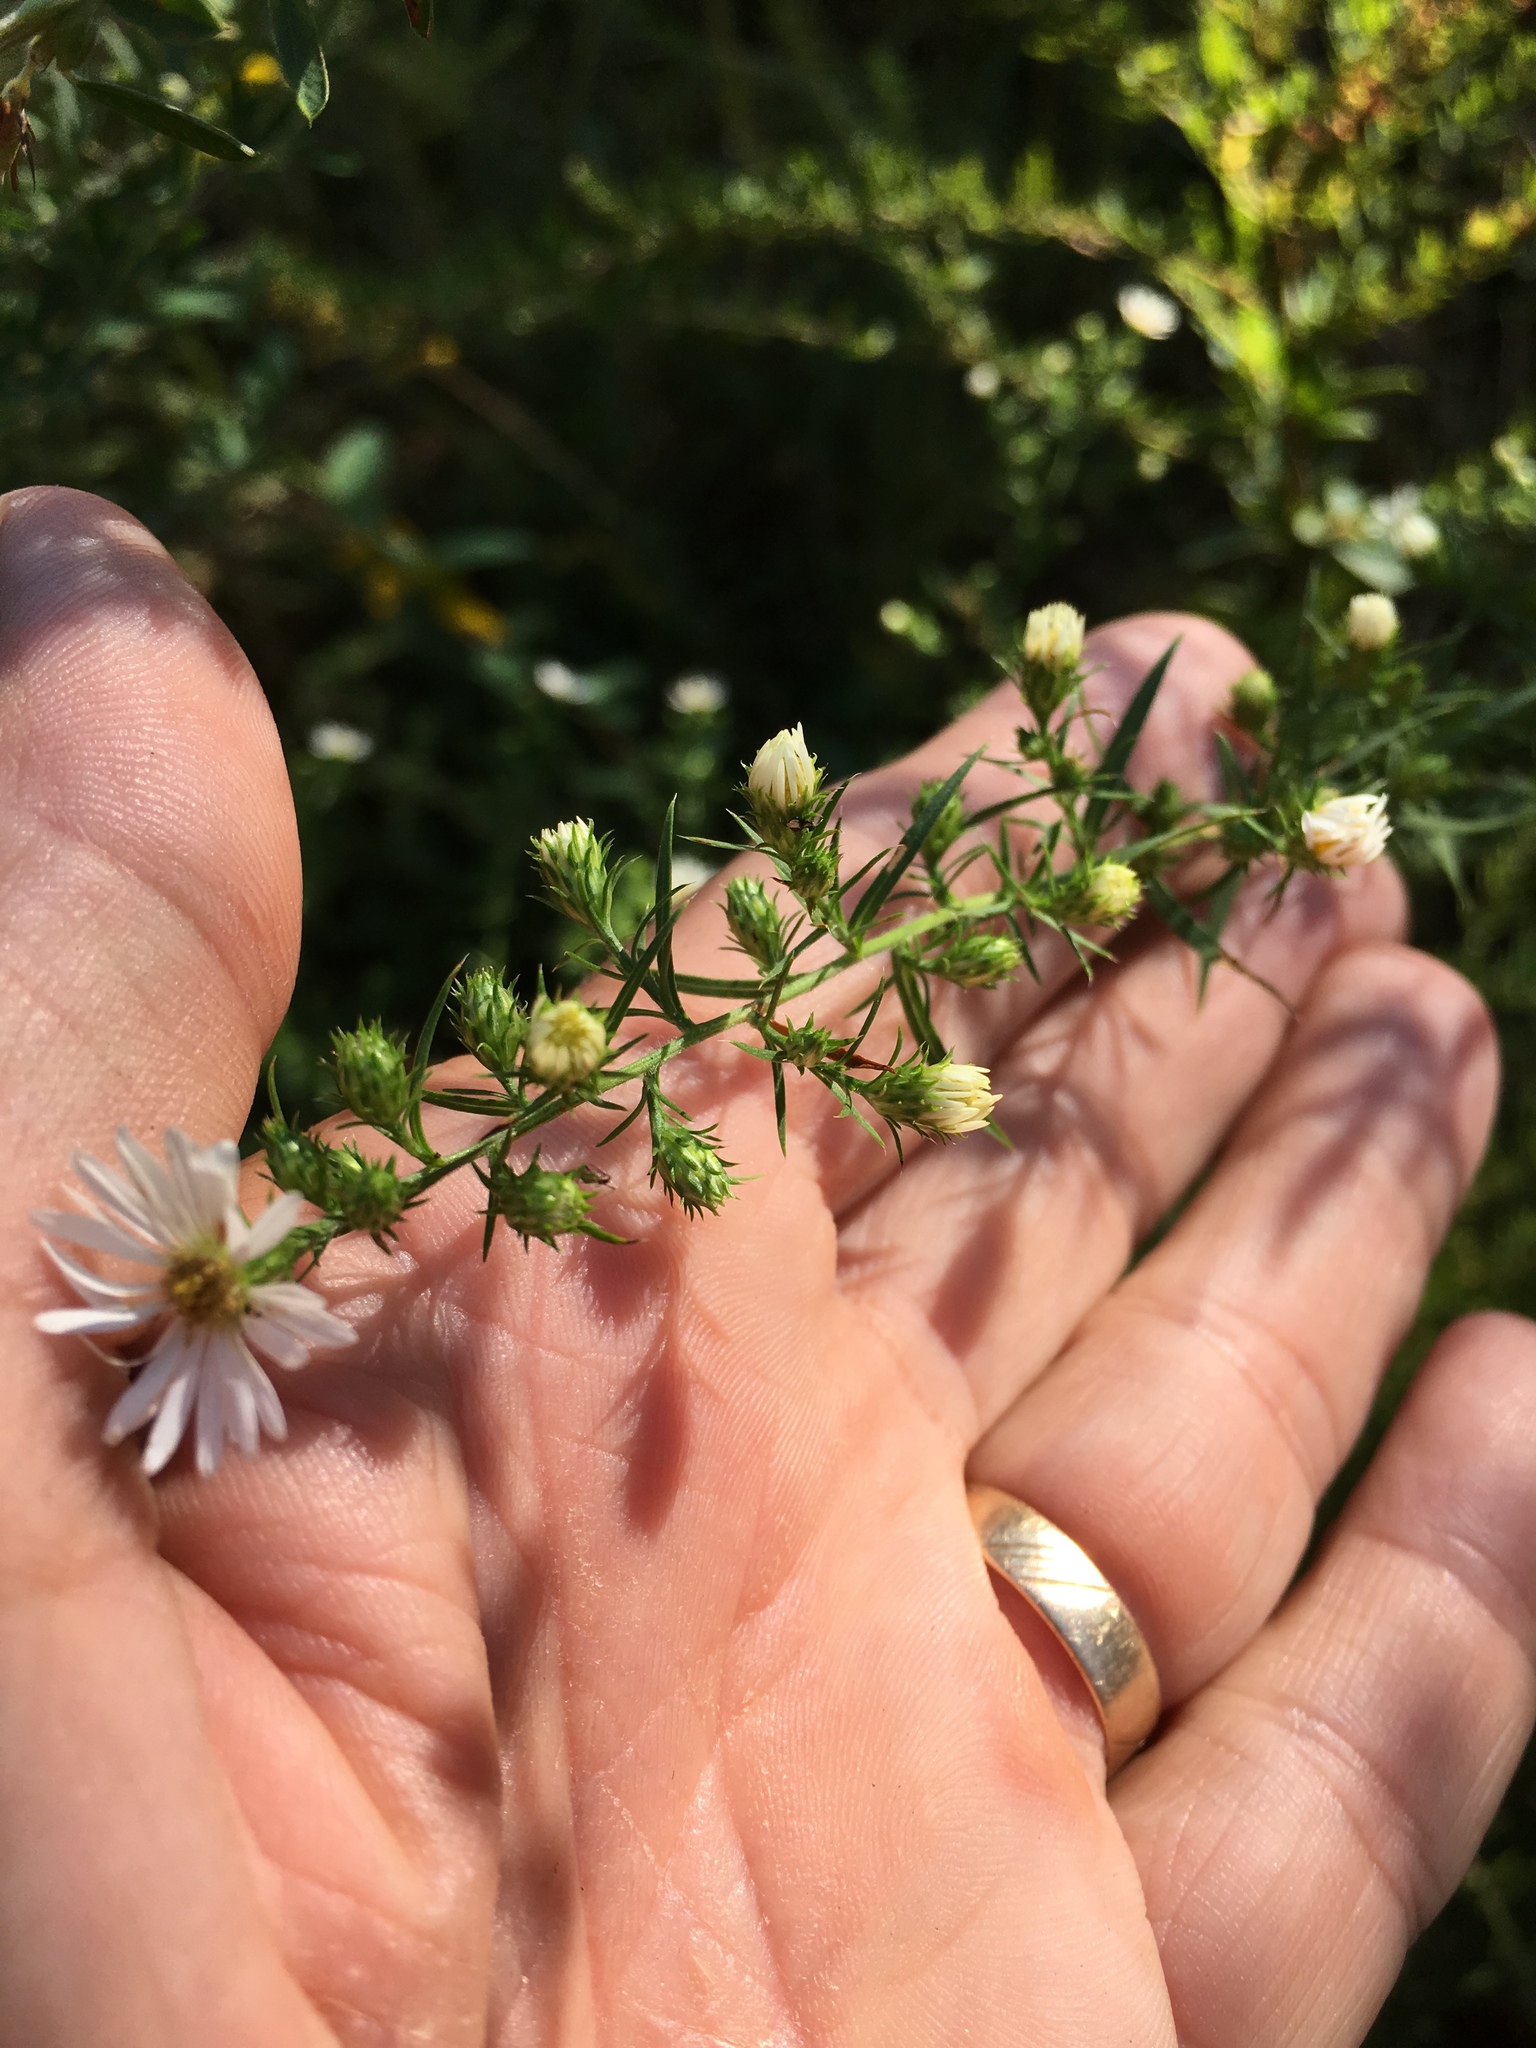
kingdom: Plantae
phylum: Tracheophyta
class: Magnoliopsida
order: Asterales
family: Asteraceae
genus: Symphyotrichum
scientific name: Symphyotrichum pilosum
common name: Awl aster
